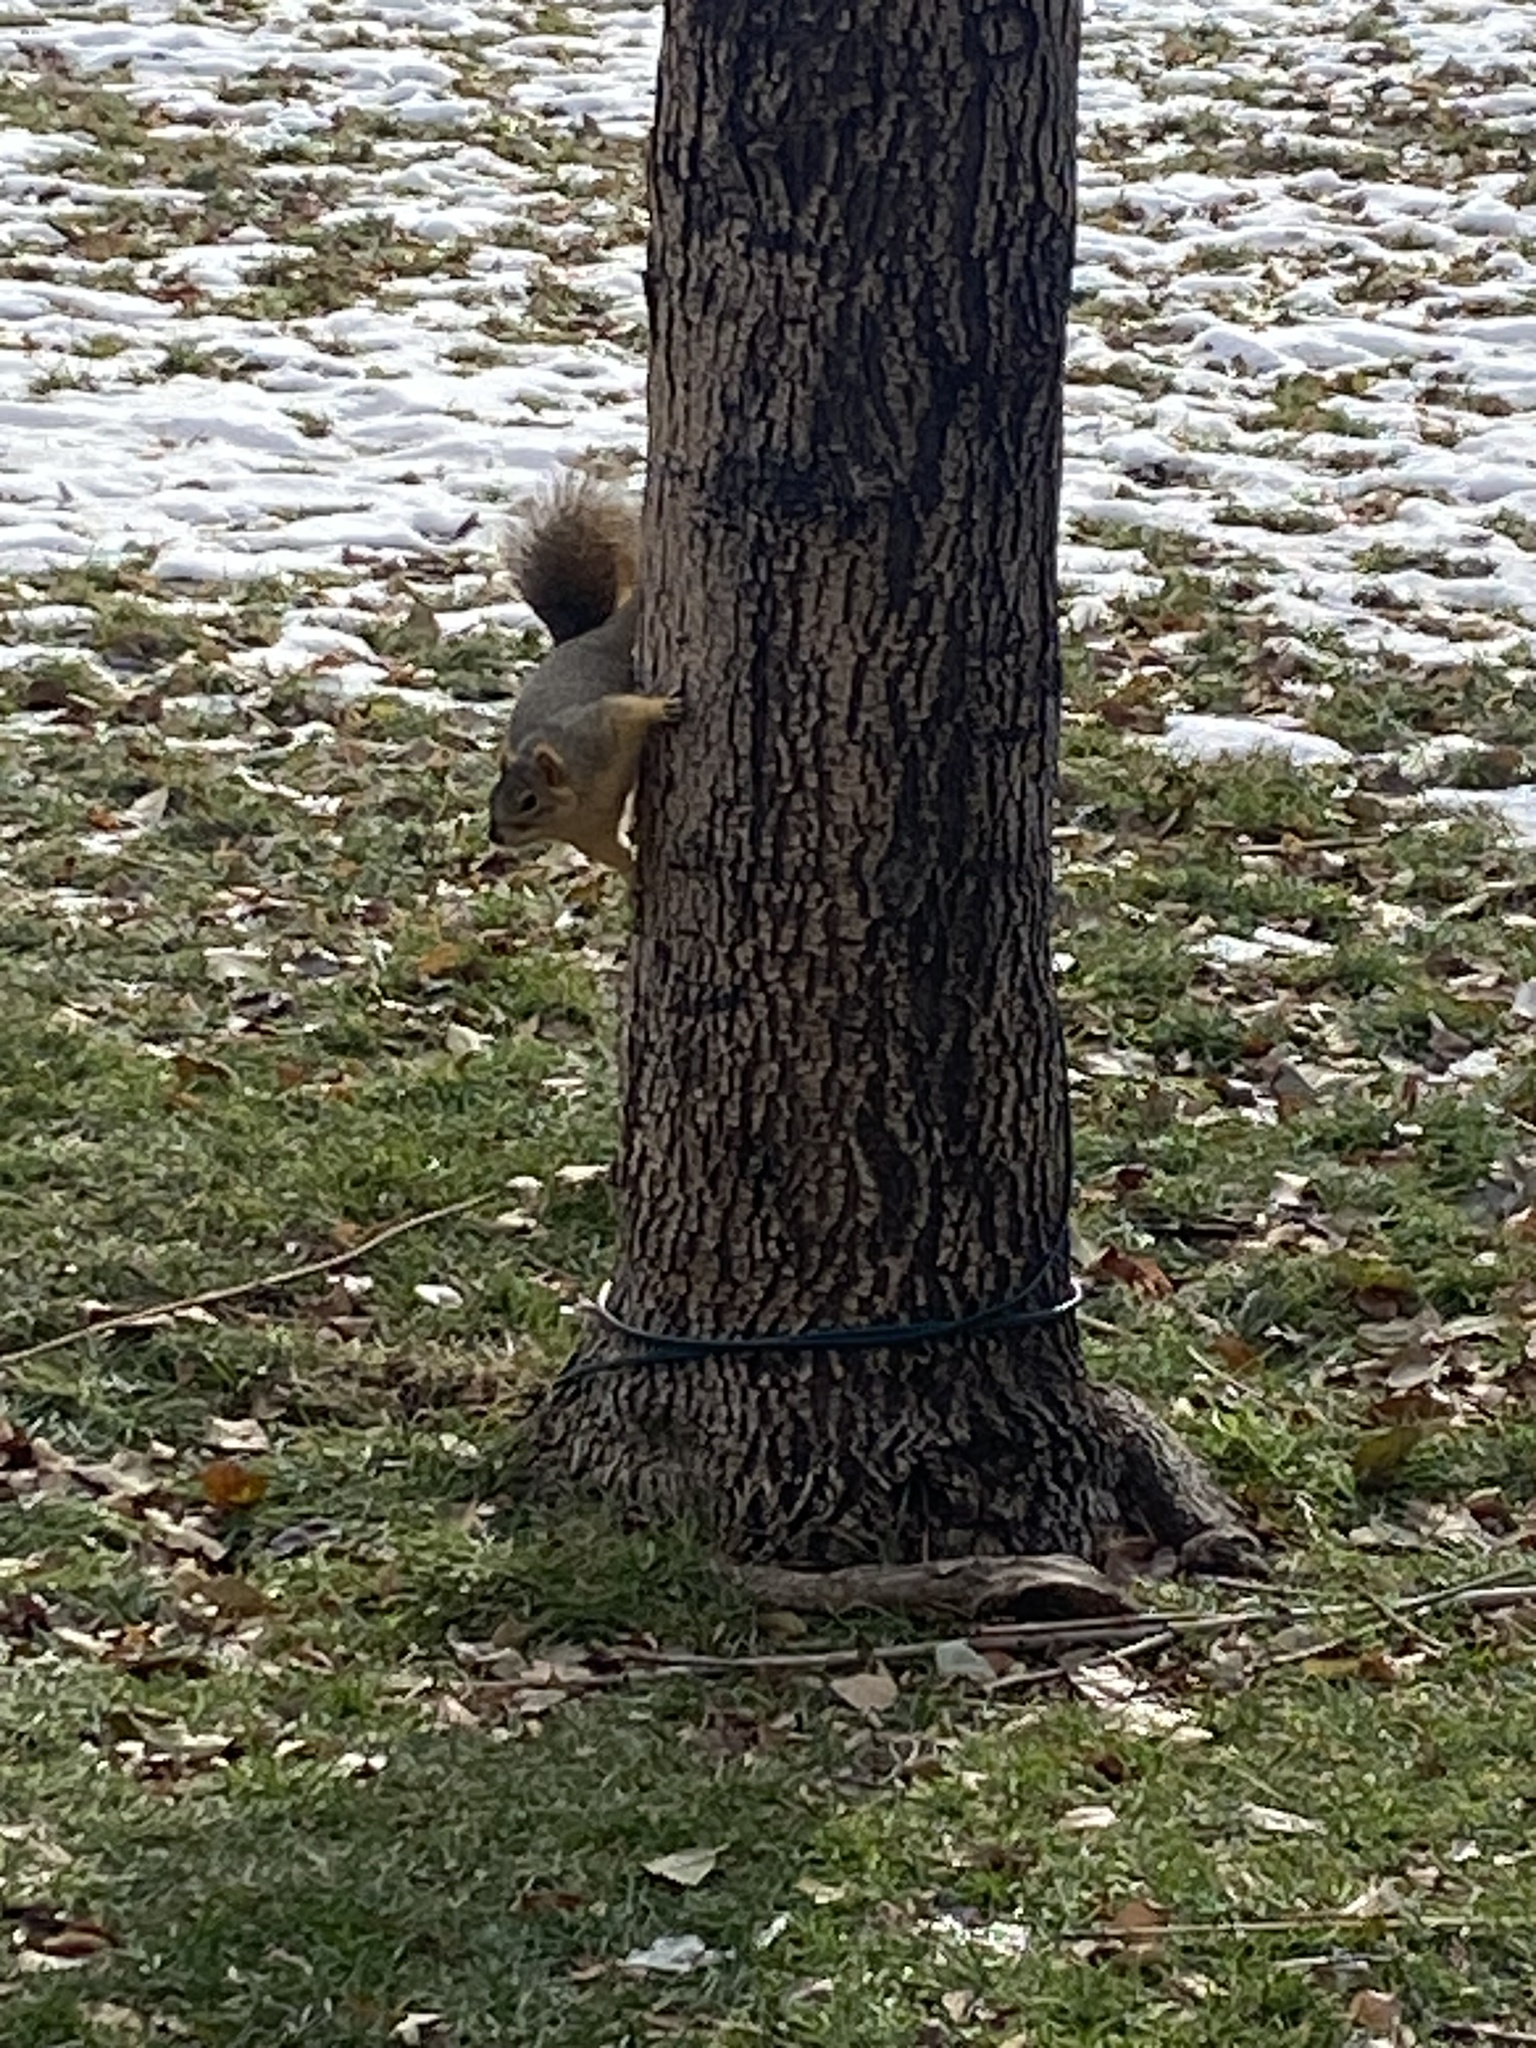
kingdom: Animalia
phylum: Chordata
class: Mammalia
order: Rodentia
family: Sciuridae
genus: Sciurus
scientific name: Sciurus niger
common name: Fox squirrel
